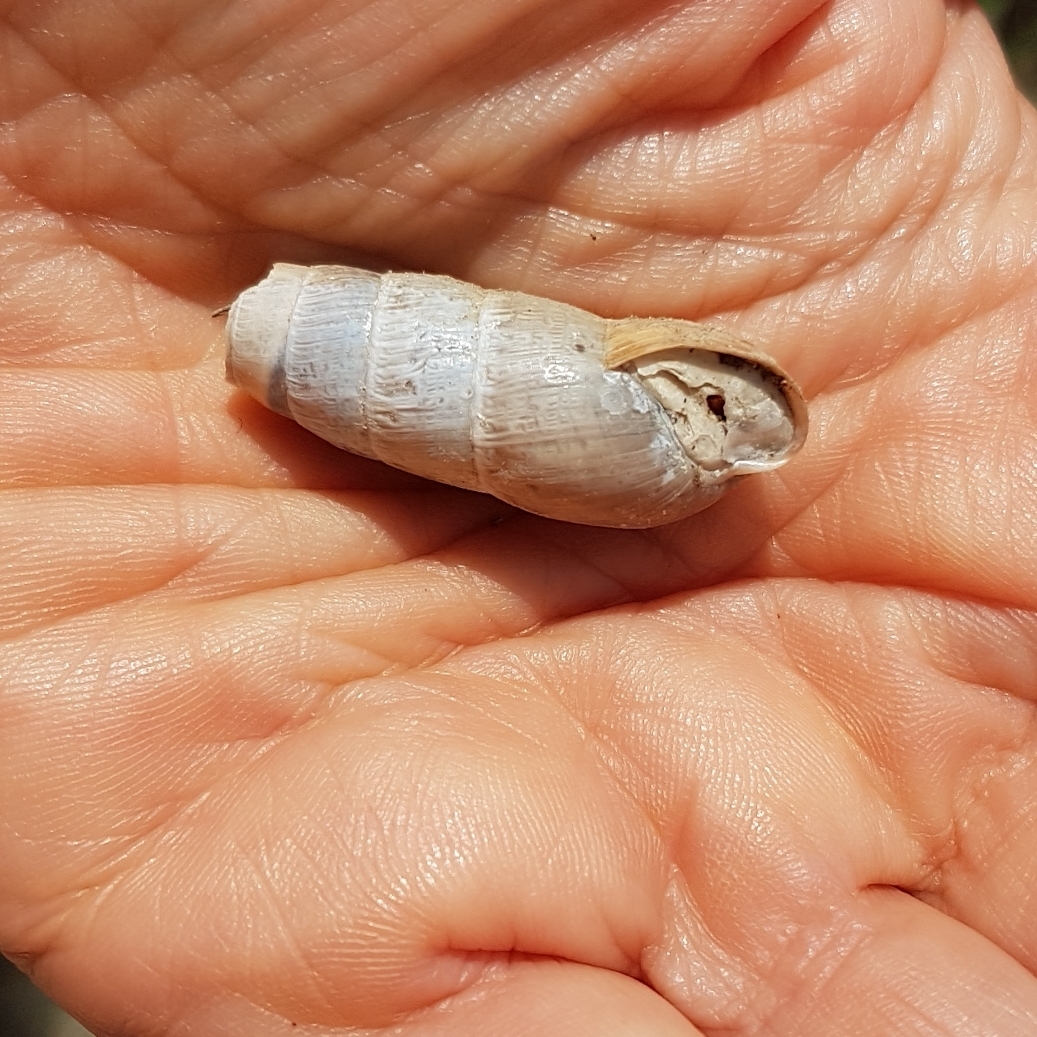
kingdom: Animalia
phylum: Mollusca
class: Gastropoda
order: Stylommatophora
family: Achatinidae
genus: Rumina
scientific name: Rumina decollata
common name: Decollate snail
